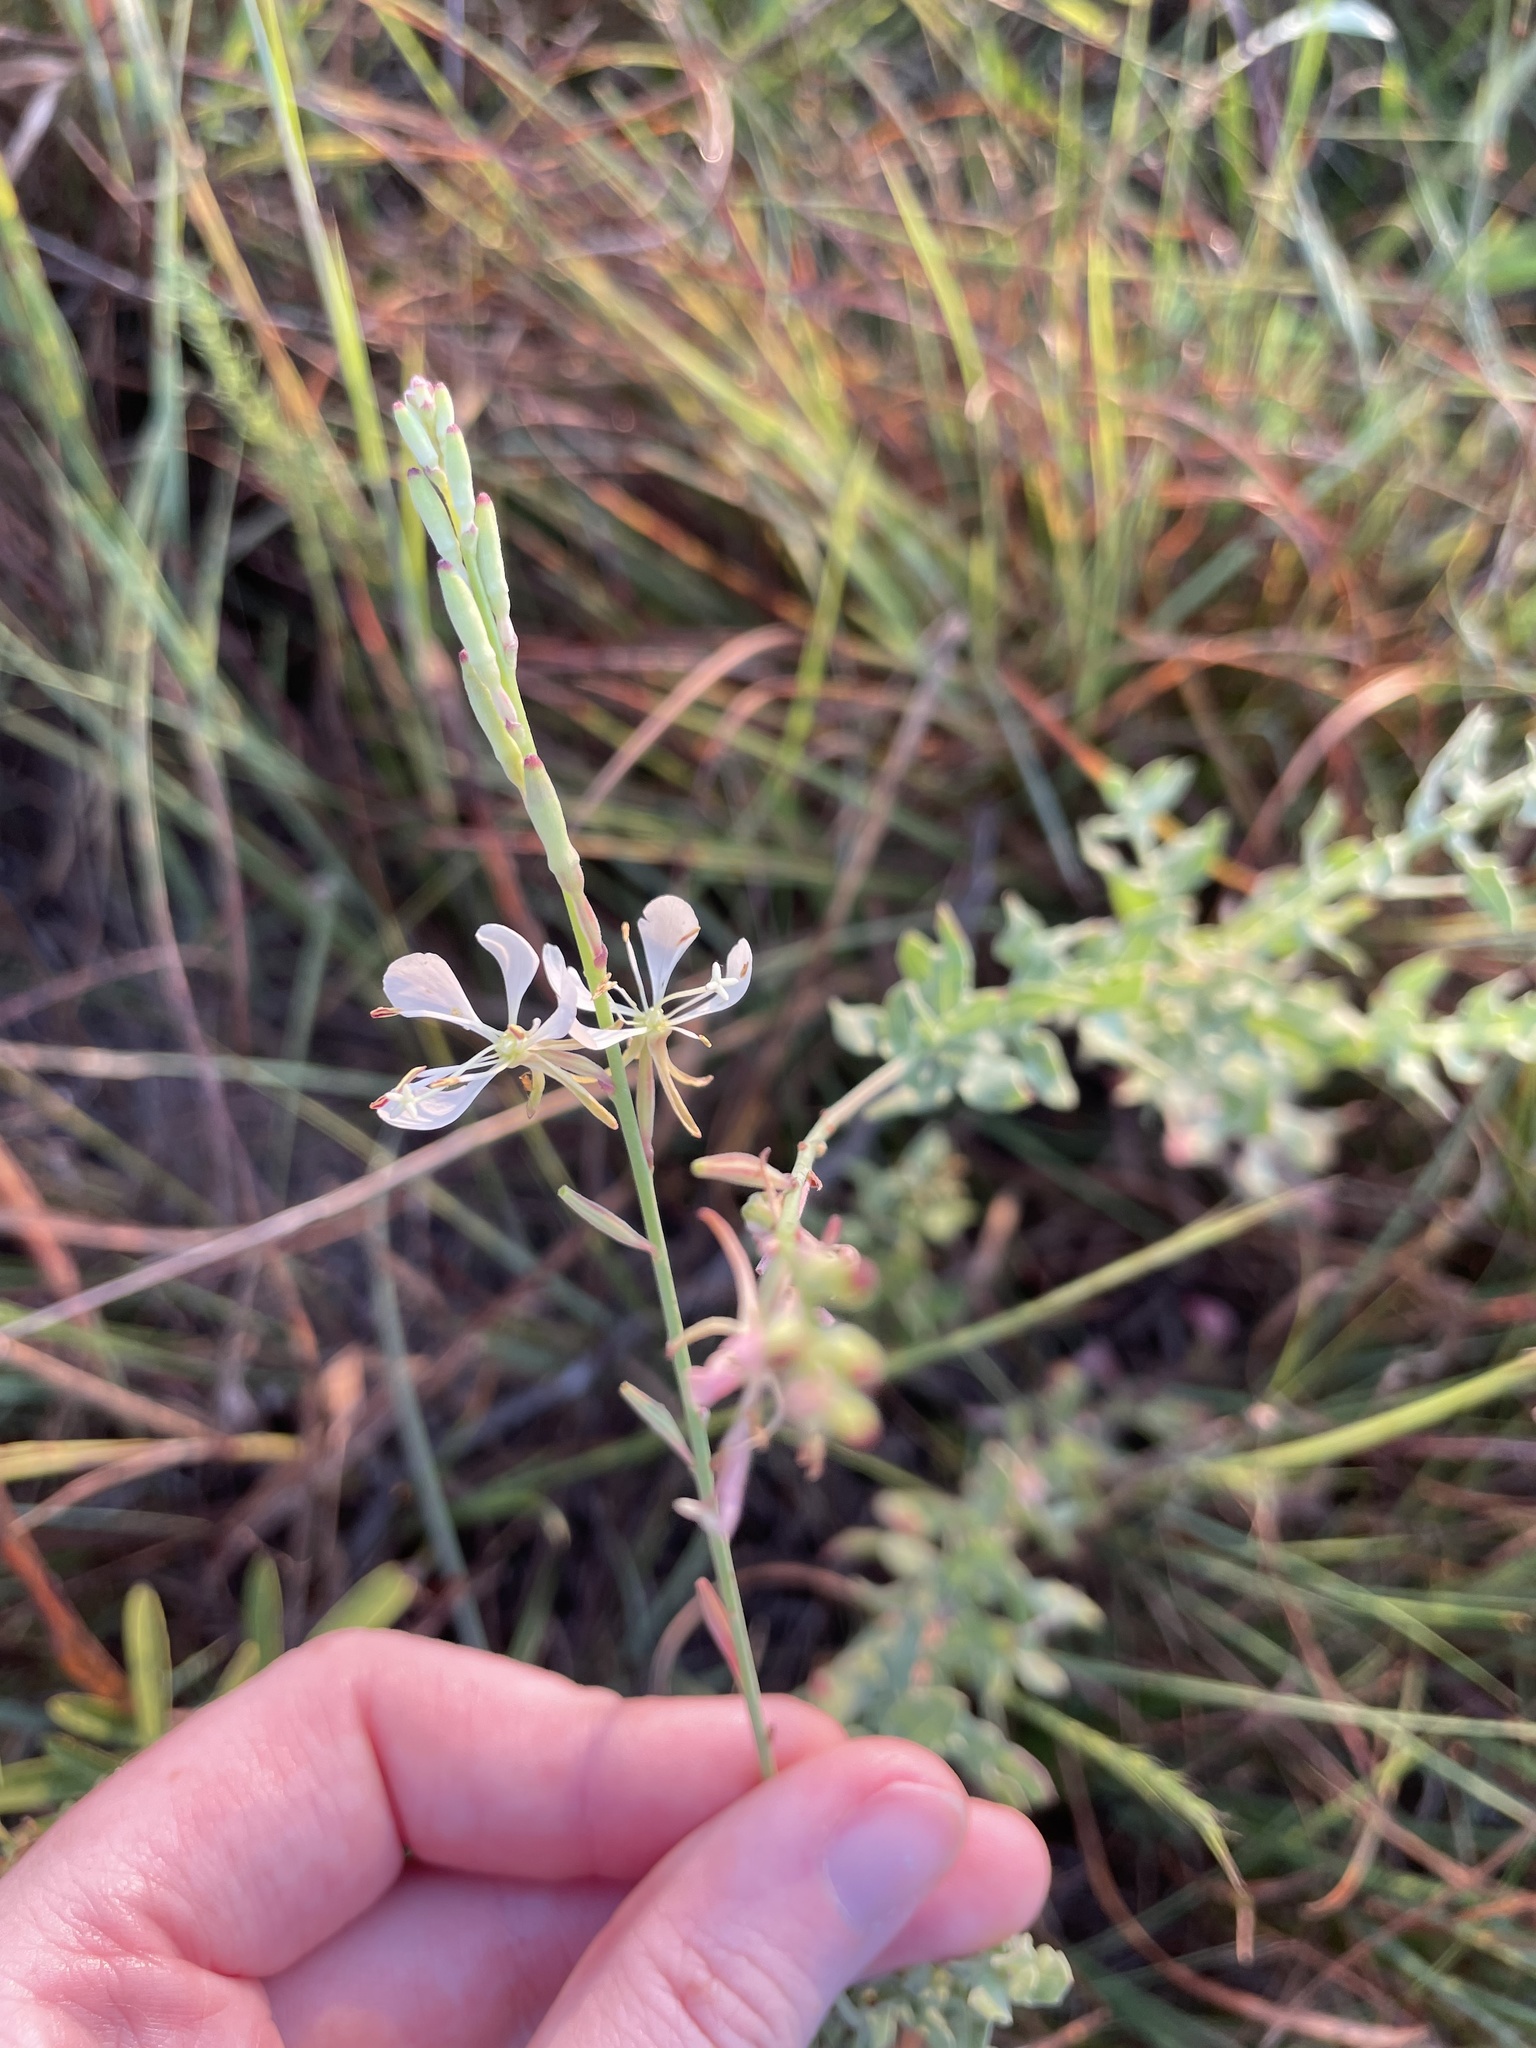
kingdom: Plantae
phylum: Tracheophyta
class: Magnoliopsida
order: Myrtales
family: Onagraceae
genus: Oenothera
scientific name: Oenothera cinerea
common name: Woolly beeblossom
